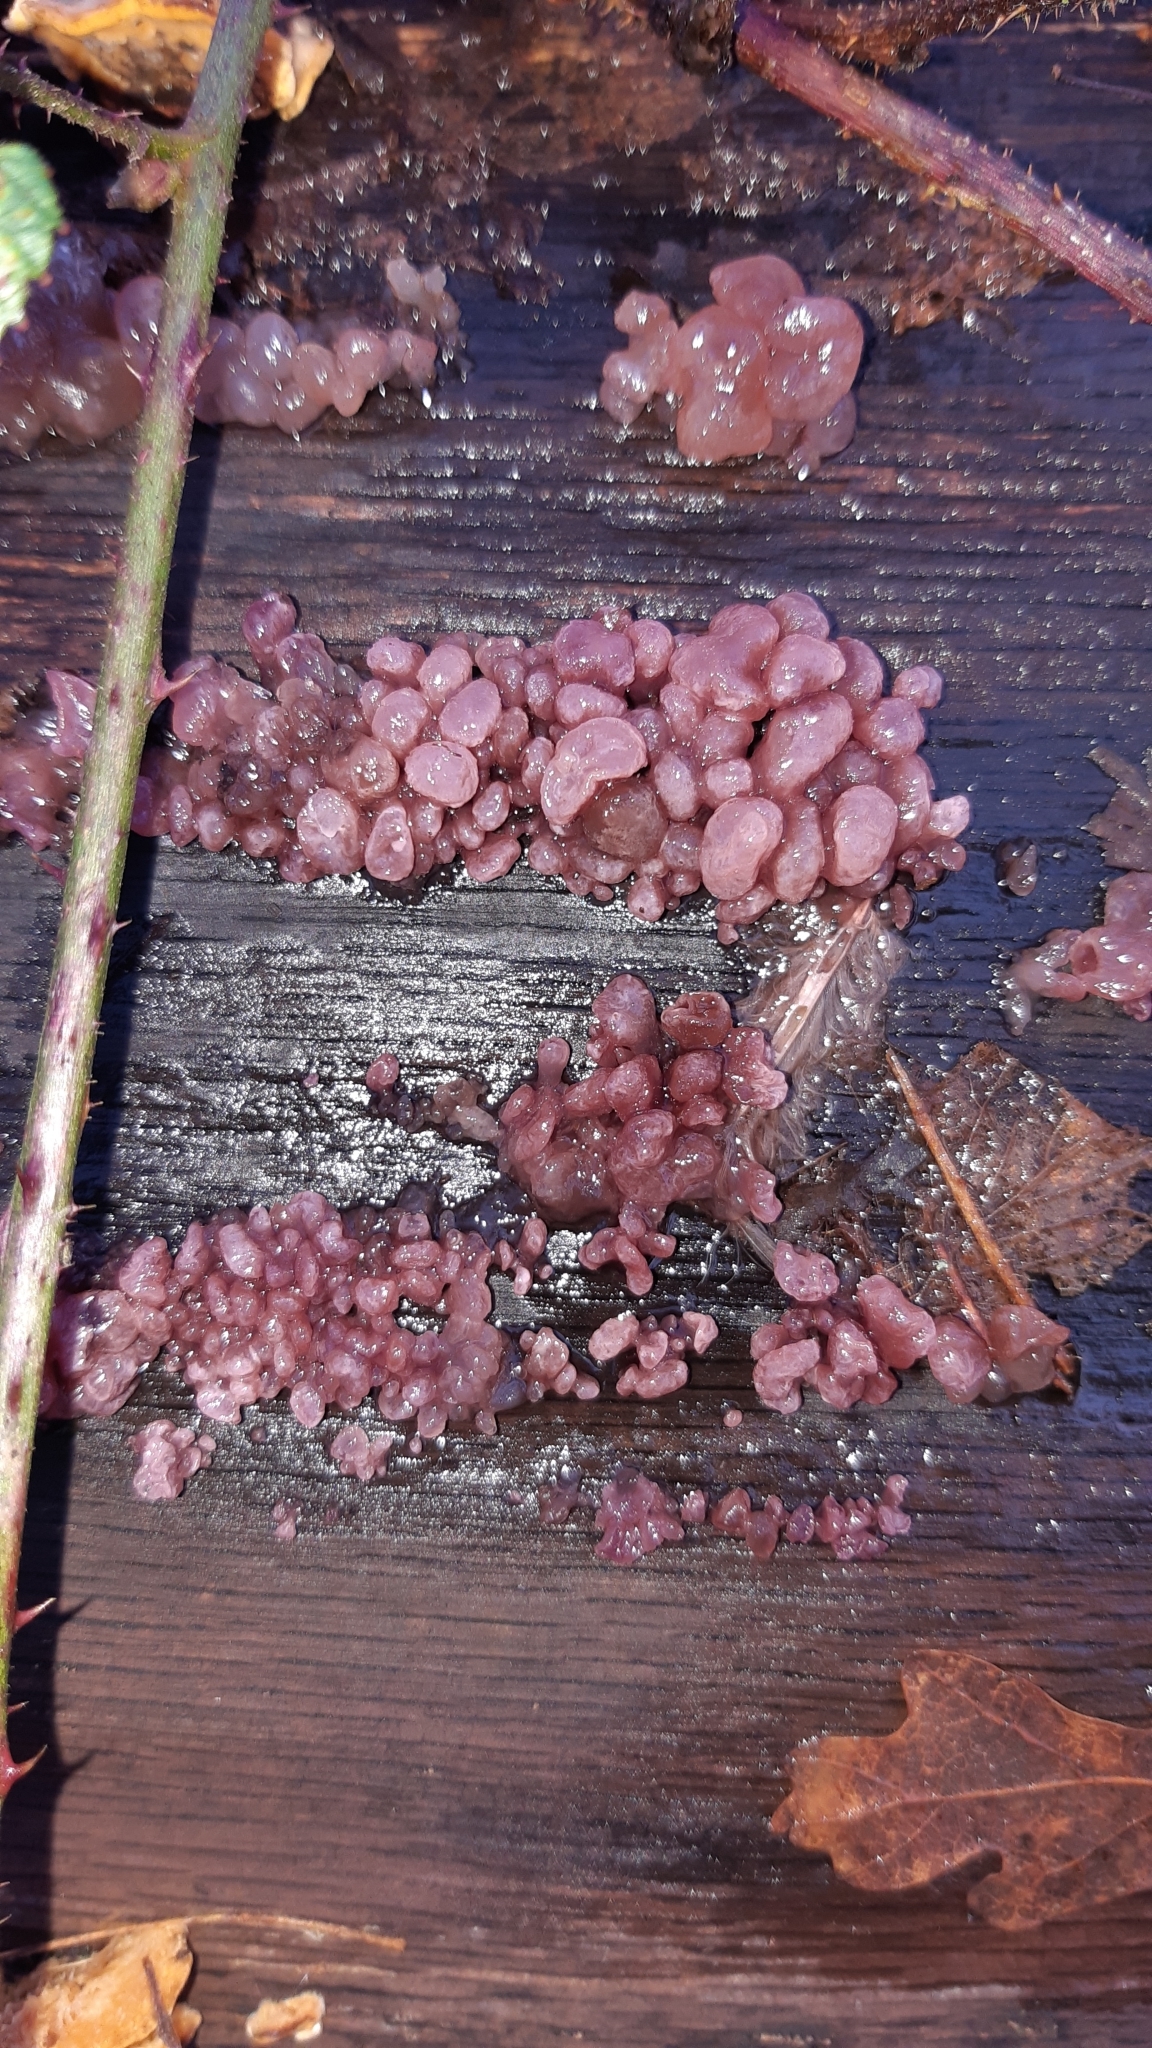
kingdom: Fungi
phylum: Ascomycota
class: Leotiomycetes
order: Helotiales
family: Gelatinodiscaceae
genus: Ascocoryne
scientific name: Ascocoryne sarcoides
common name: Purple jellydisc
